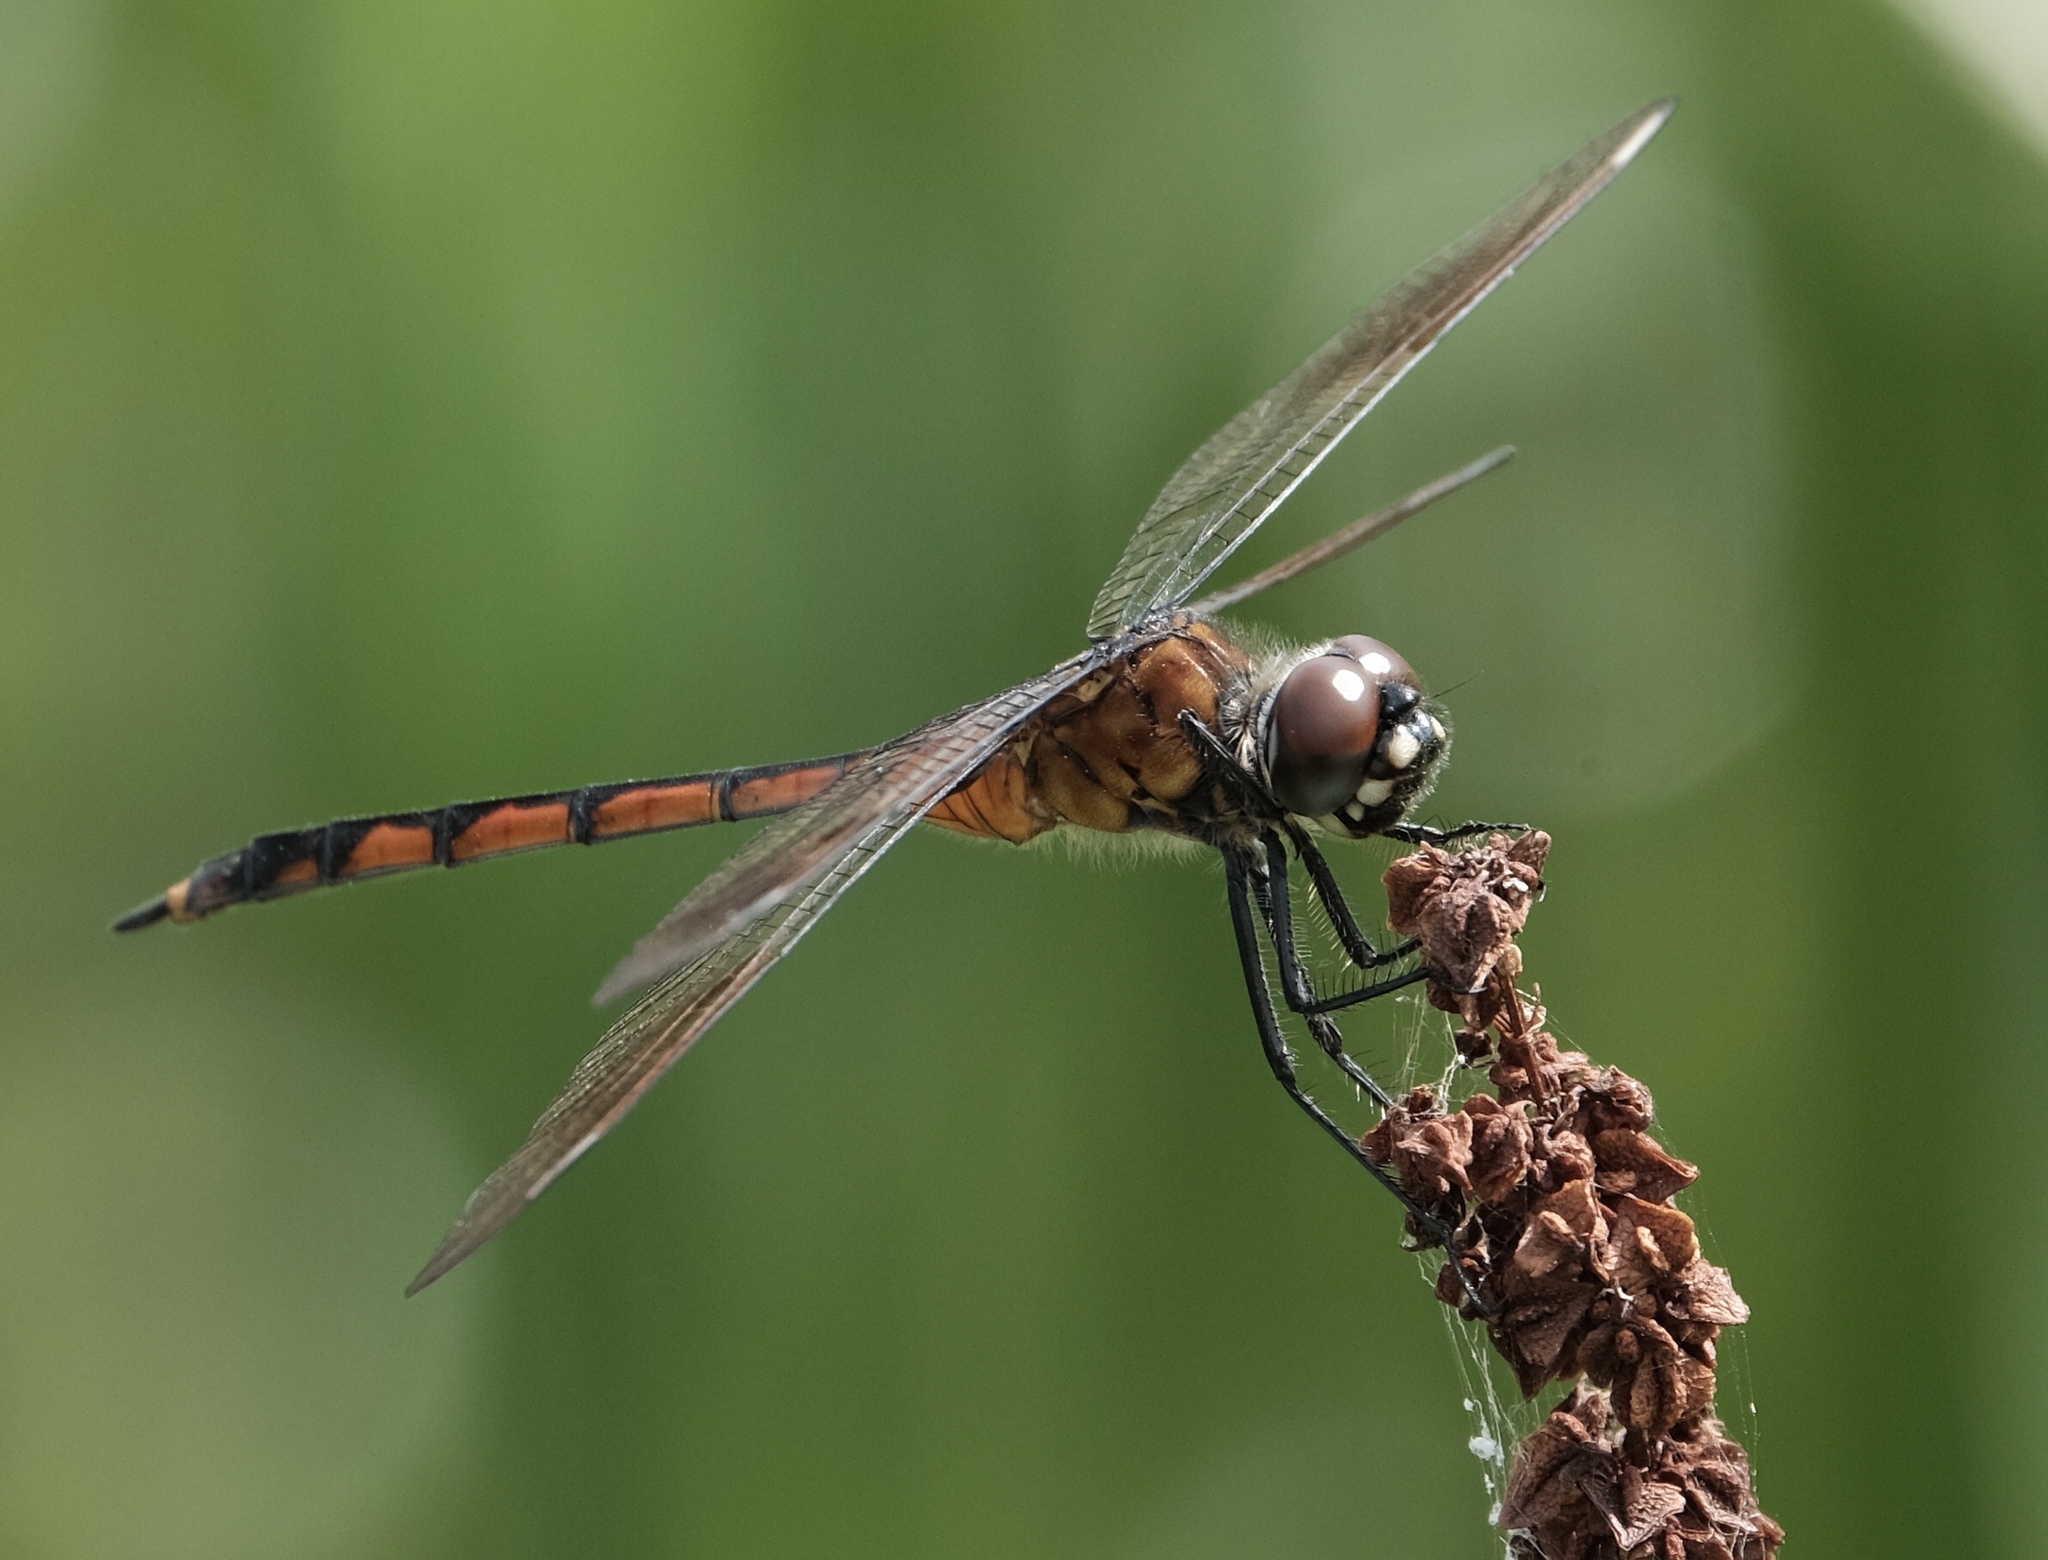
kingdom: Animalia
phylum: Arthropoda
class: Insecta
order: Odonata
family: Libellulidae
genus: Brachymesia
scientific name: Brachymesia gravida
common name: Four-spotted pennant
